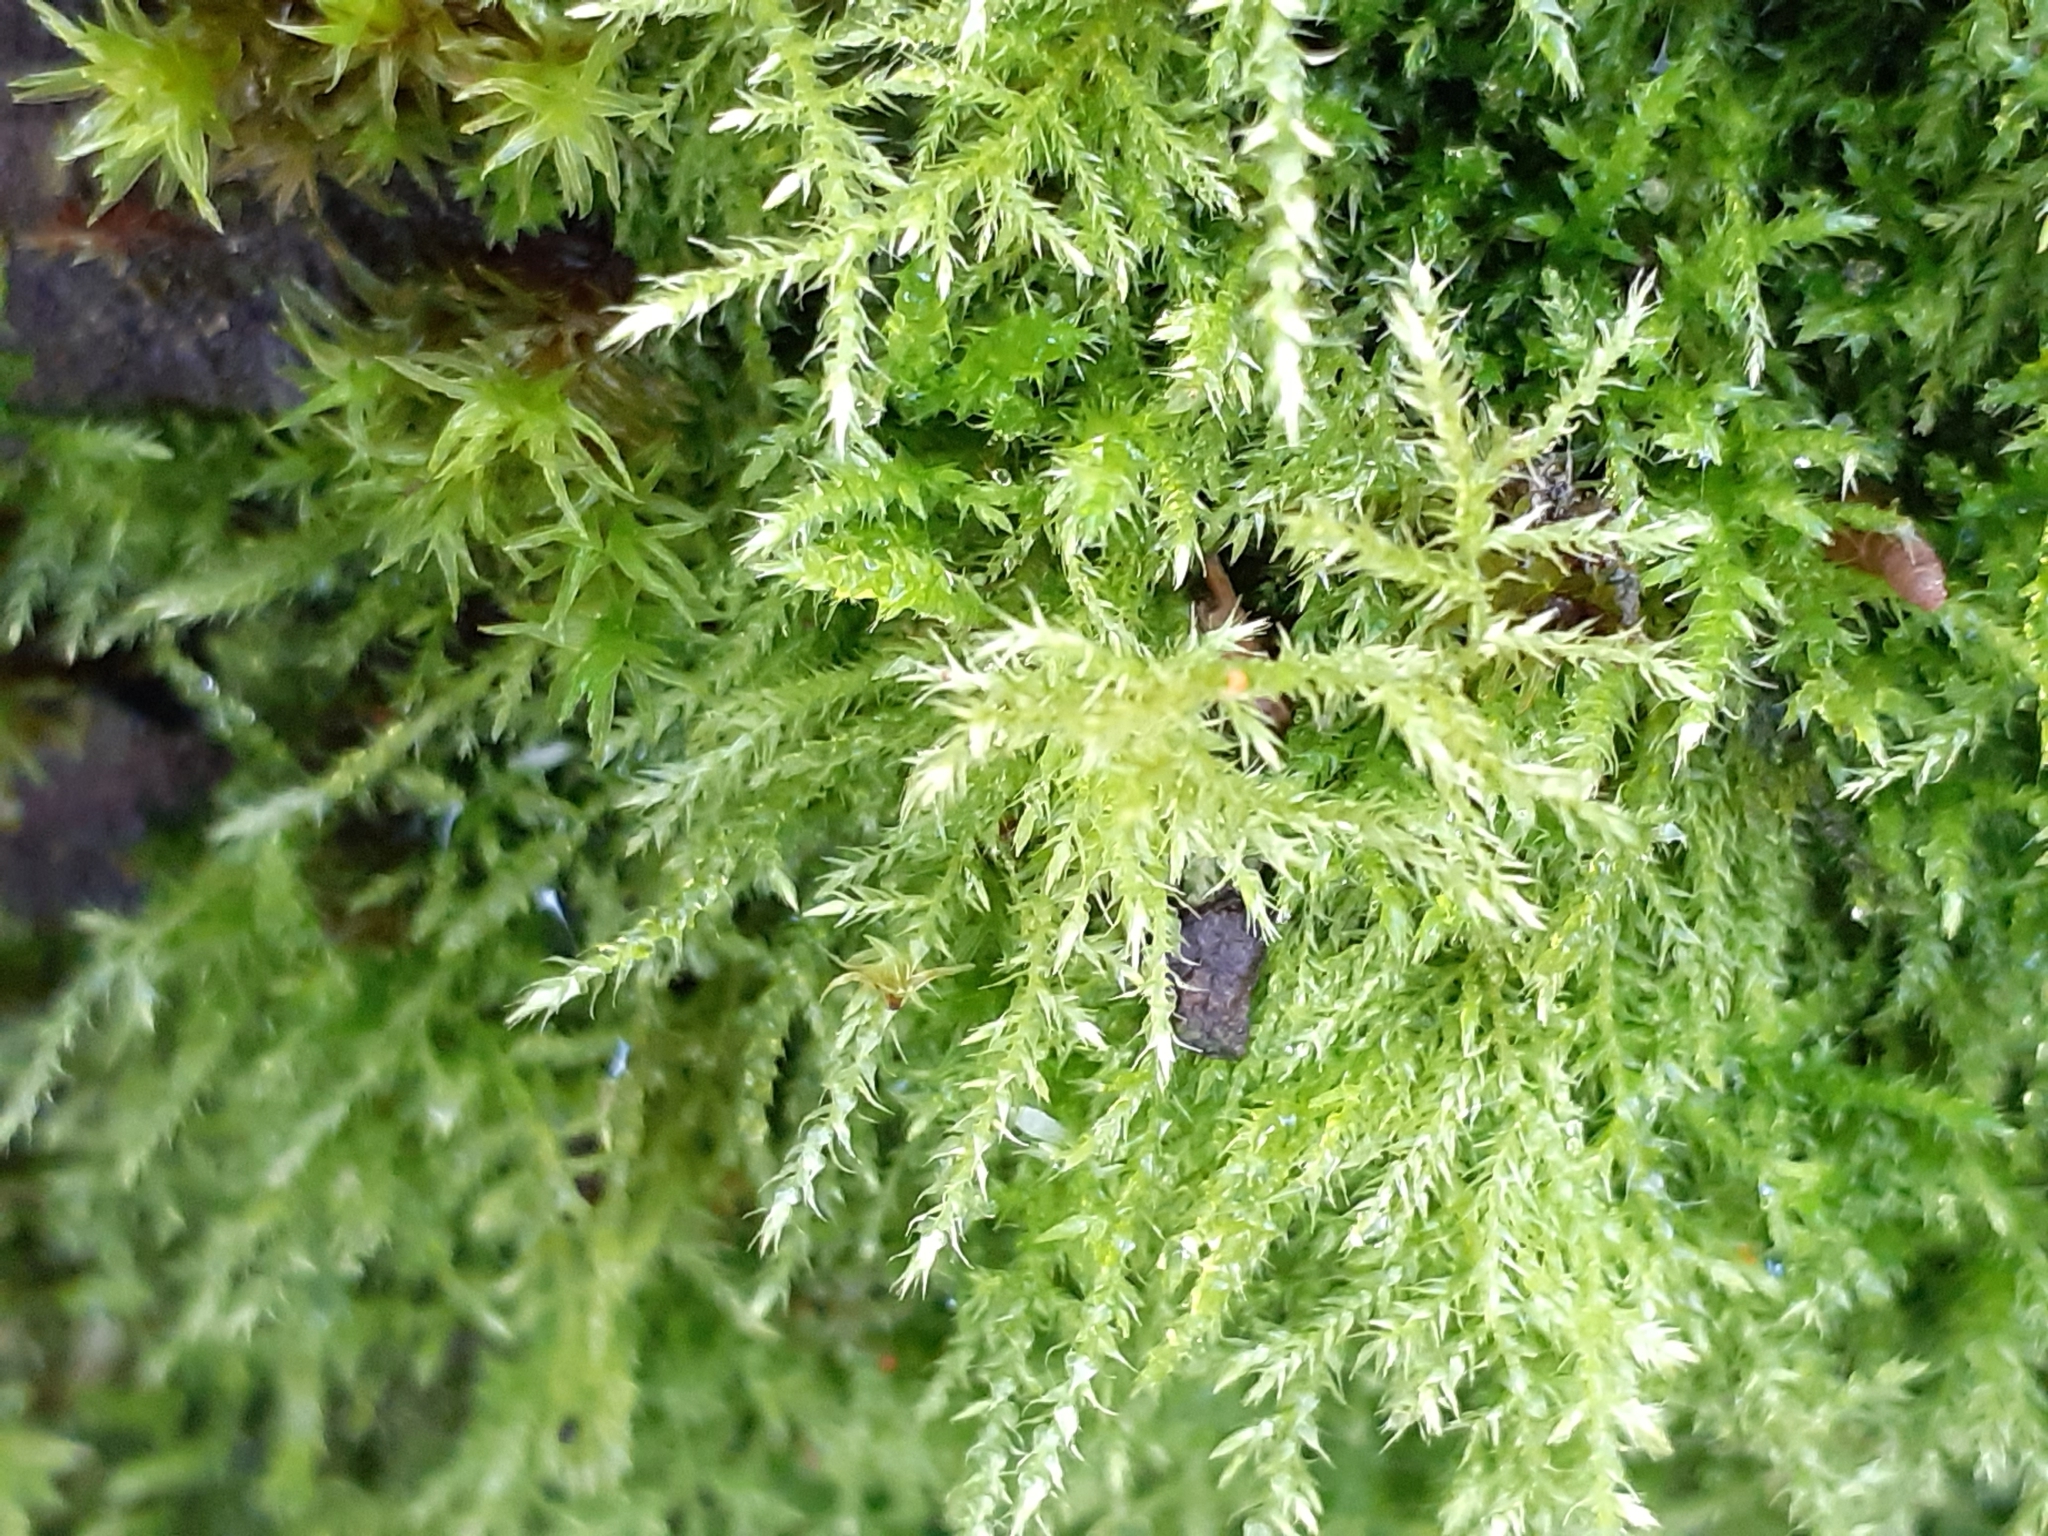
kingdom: Plantae
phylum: Bryophyta
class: Bryopsida
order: Hypnales
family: Brachytheciaceae
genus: Kindbergia
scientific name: Kindbergia praelonga
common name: Slender beaked moss
